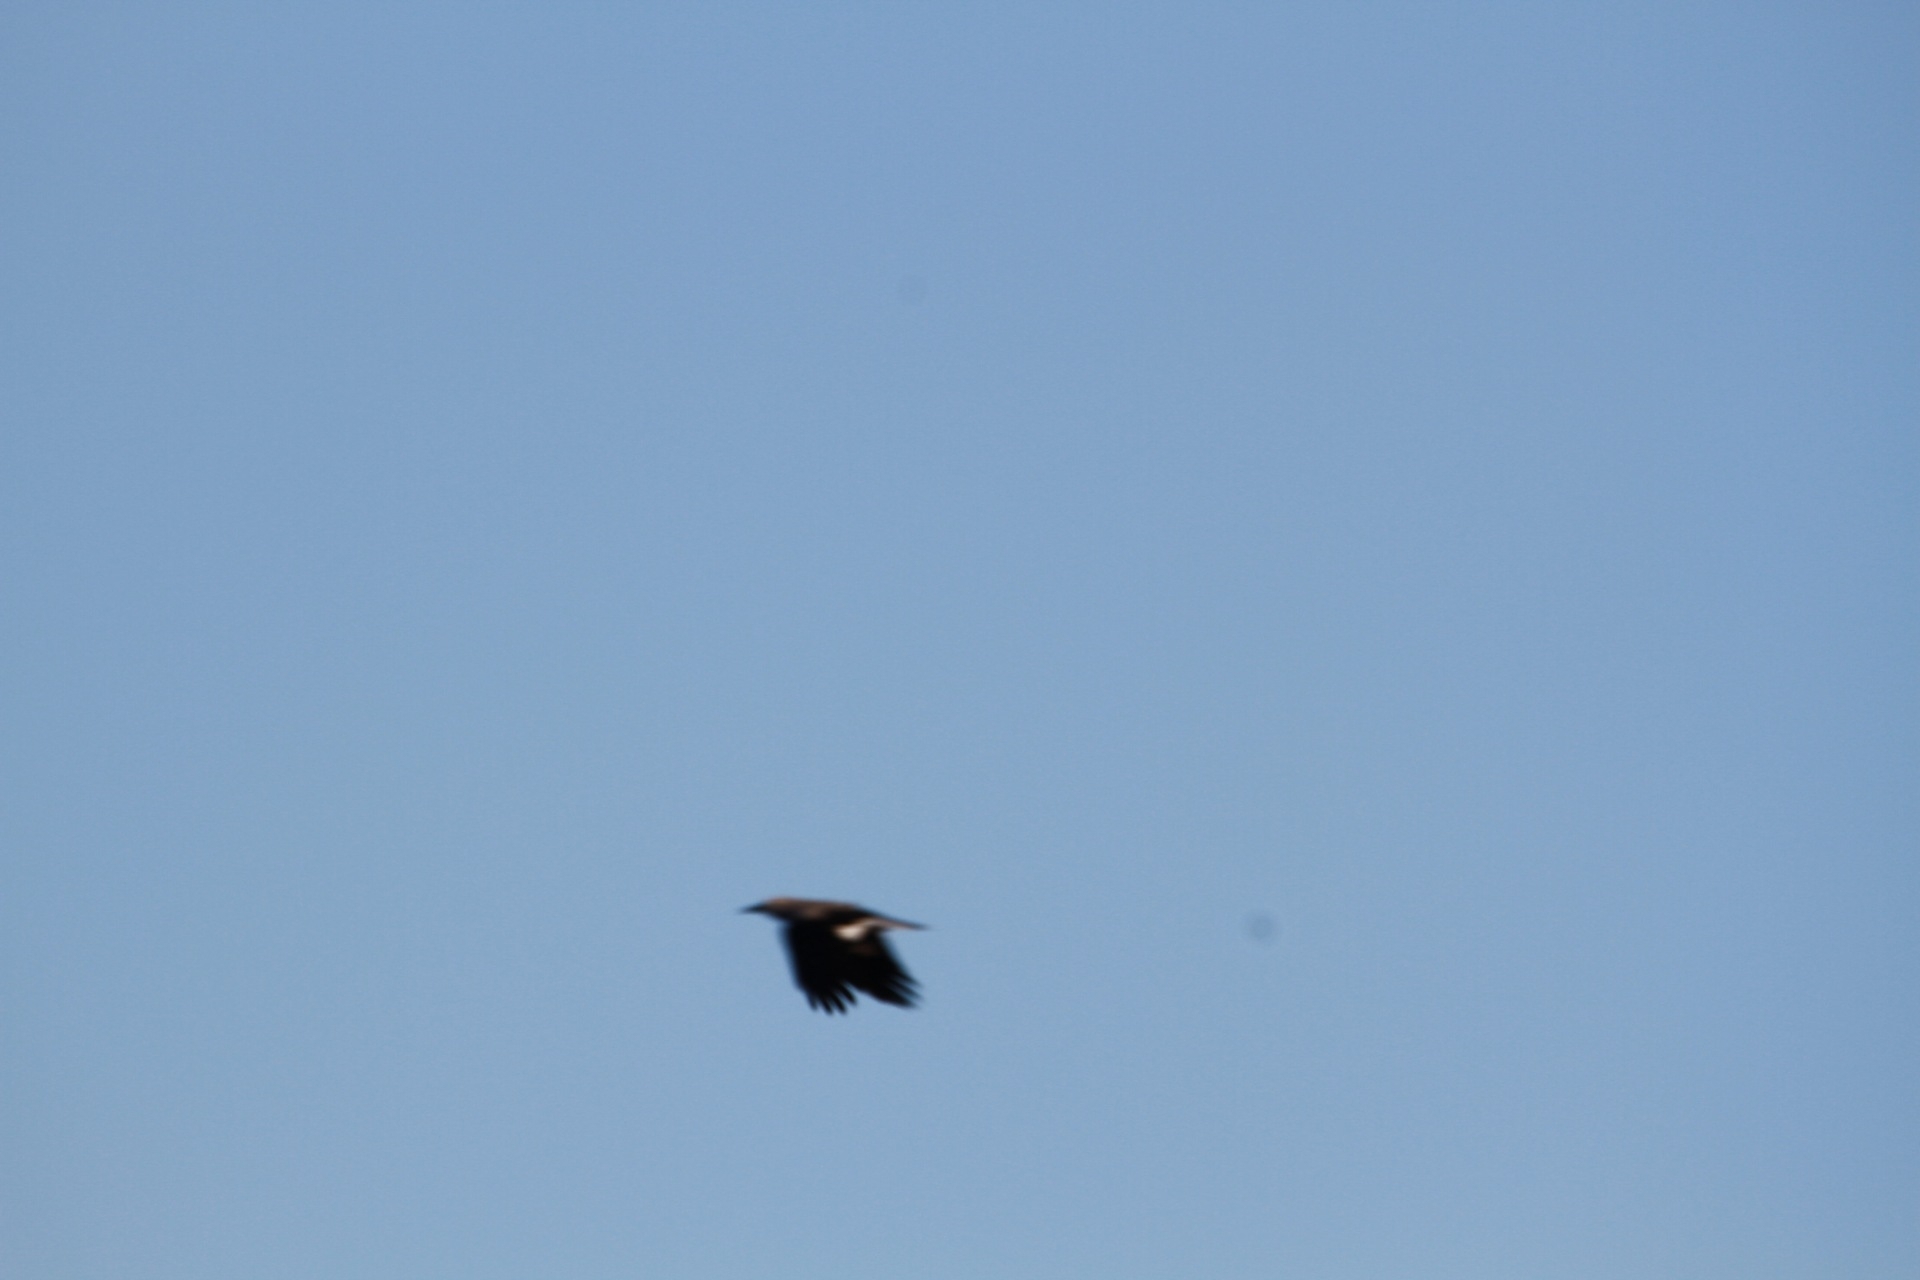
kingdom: Animalia
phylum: Chordata
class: Aves
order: Passeriformes
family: Corvidae
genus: Nucifraga
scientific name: Nucifraga columbiana
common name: Clark's nutcracker
